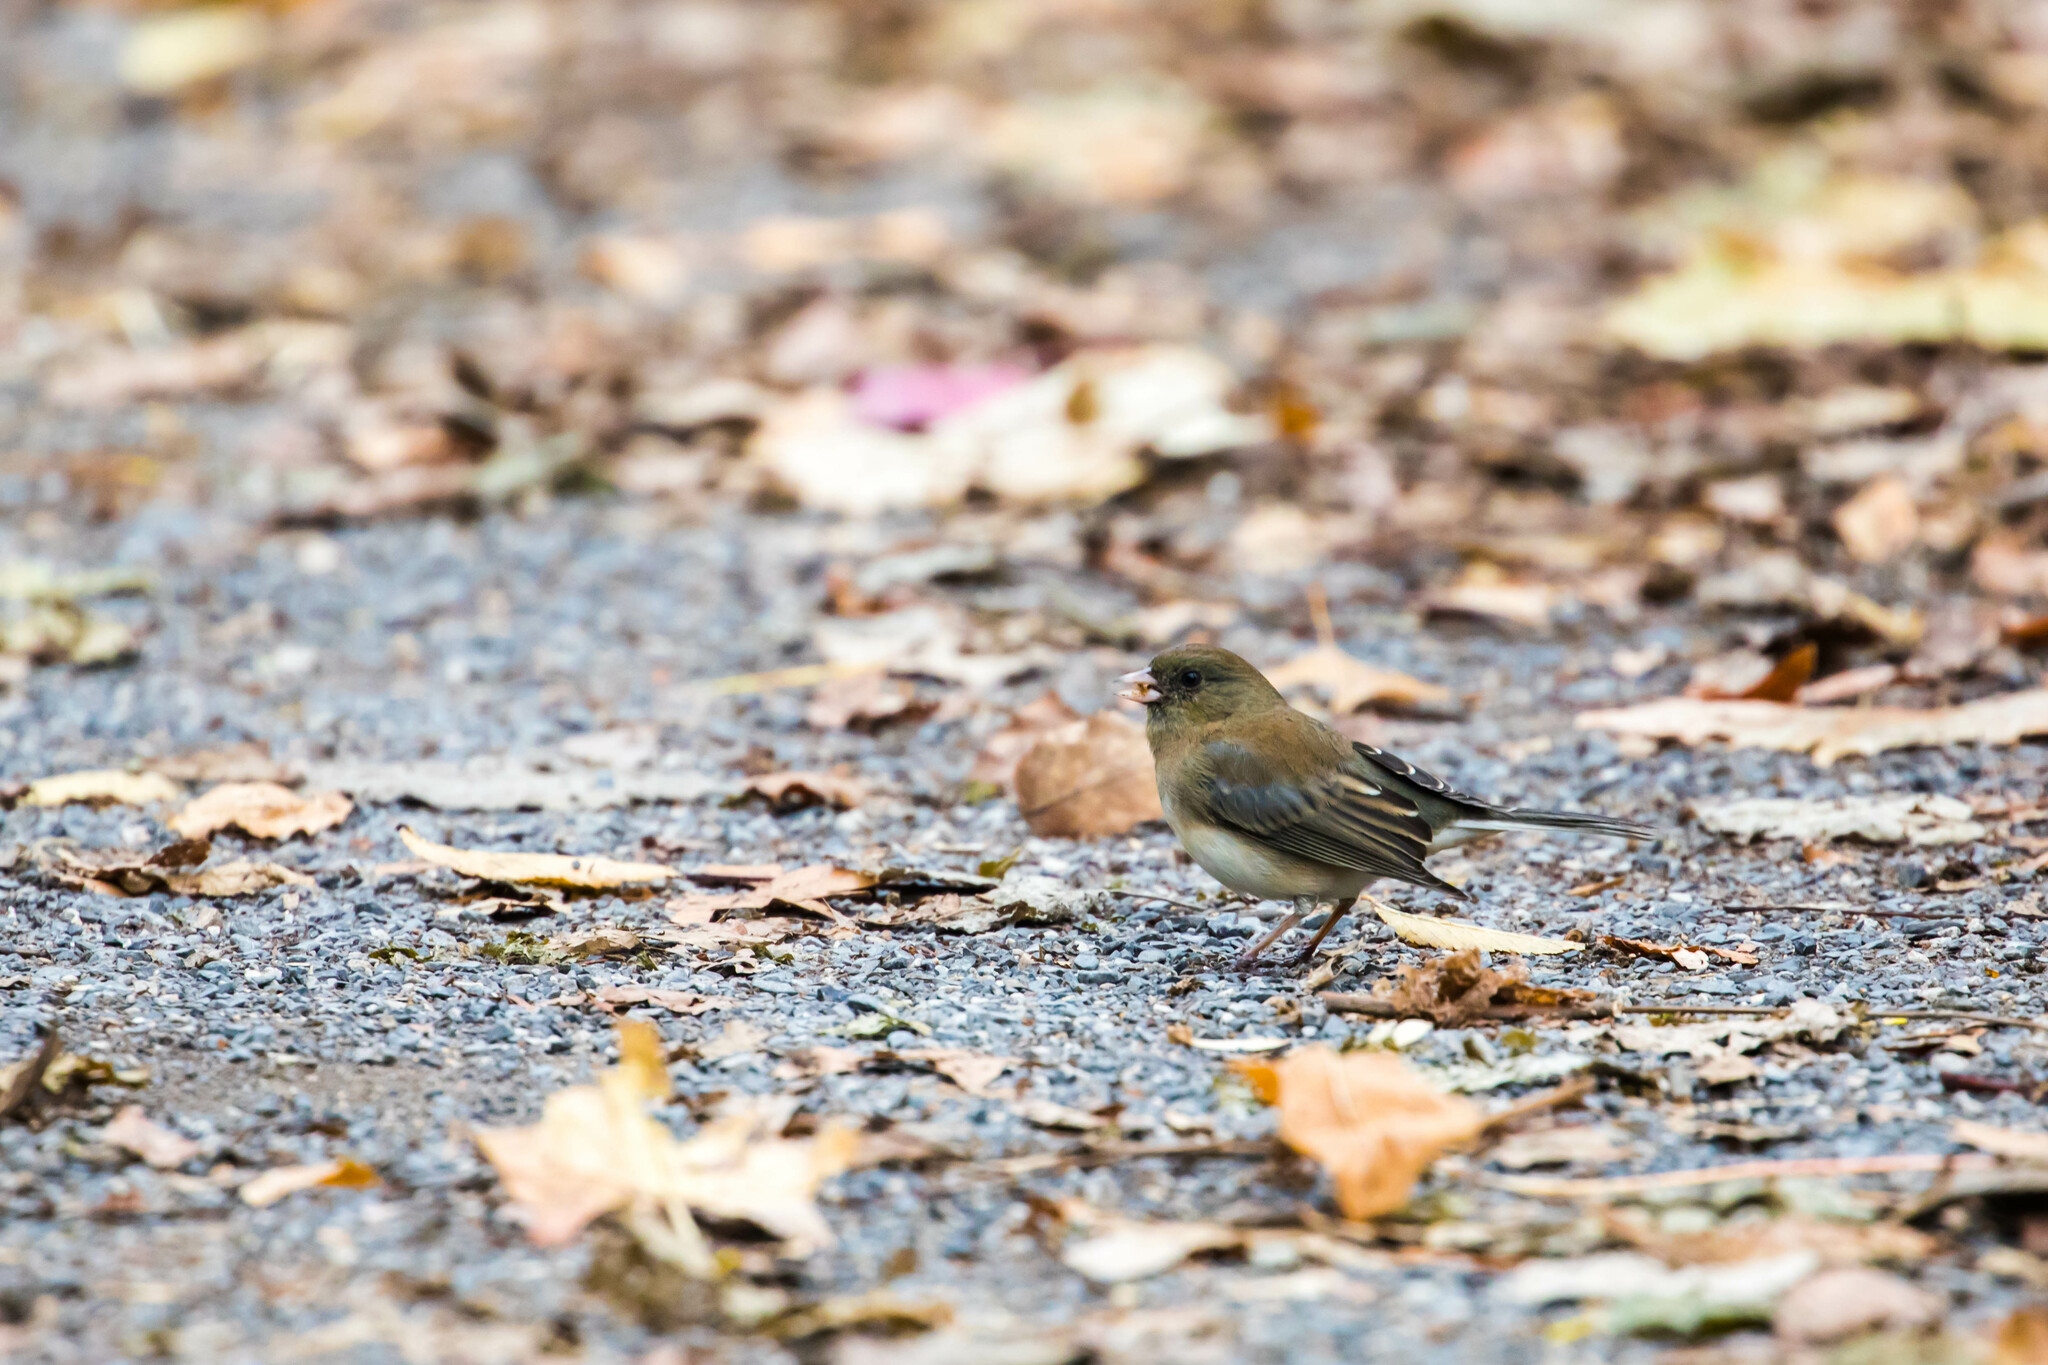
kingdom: Animalia
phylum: Chordata
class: Aves
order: Passeriformes
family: Passerellidae
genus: Junco
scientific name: Junco hyemalis
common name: Dark-eyed junco
